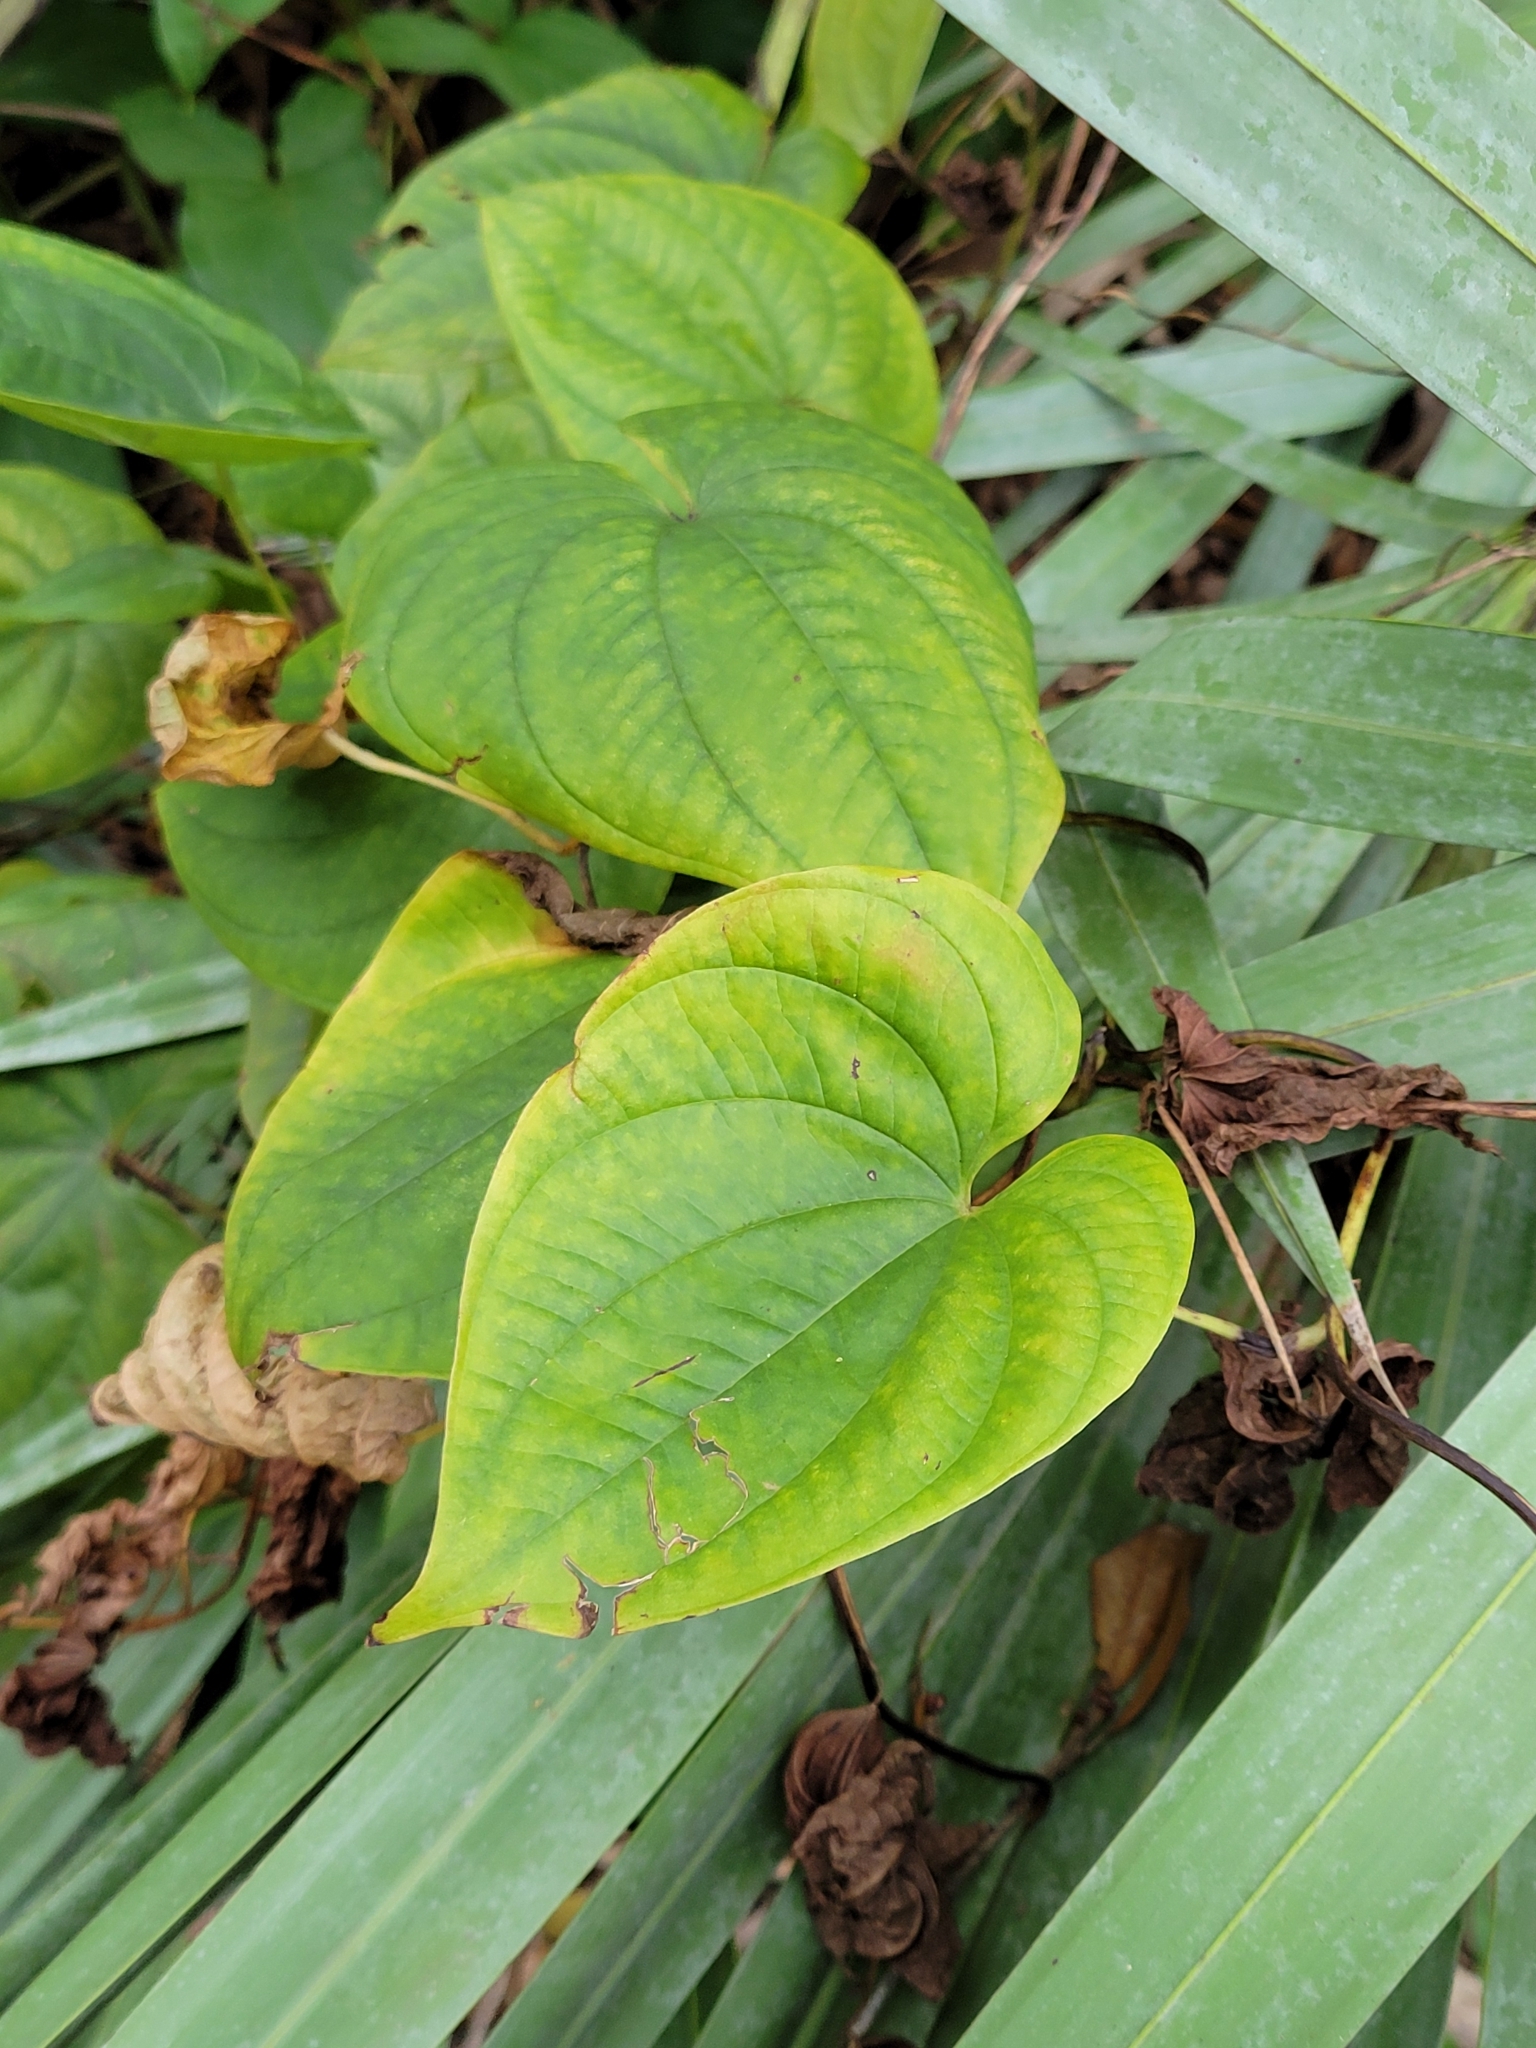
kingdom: Plantae
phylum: Tracheophyta
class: Liliopsida
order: Dioscoreales
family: Dioscoreaceae
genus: Dioscorea
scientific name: Dioscorea bulbifera
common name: Air yam
